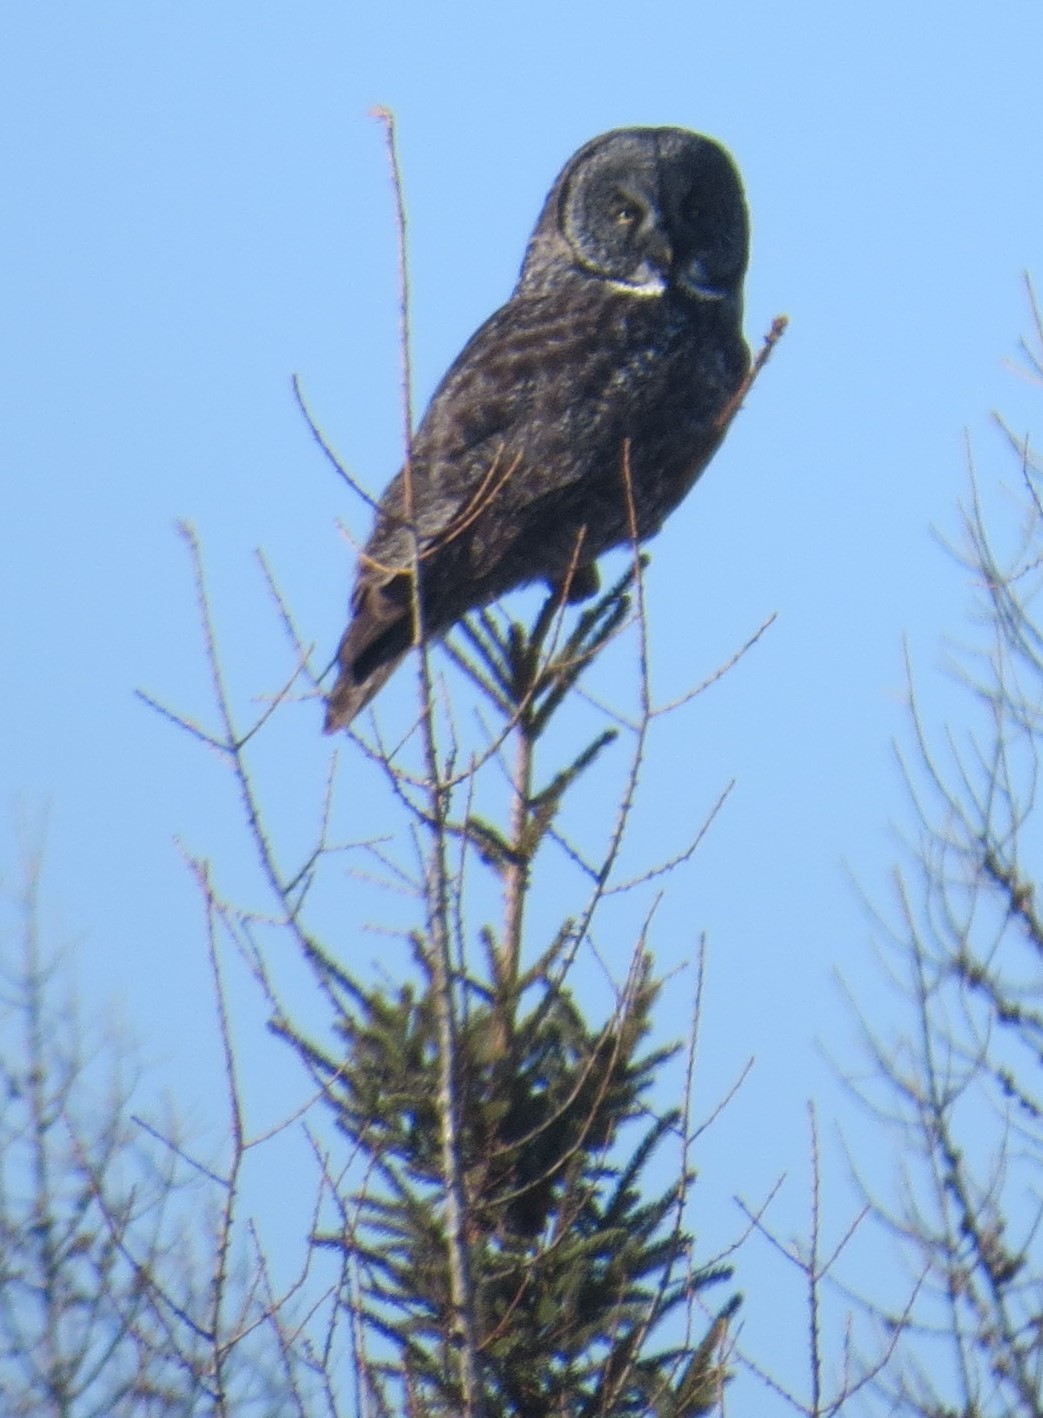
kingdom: Animalia
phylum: Chordata
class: Aves
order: Strigiformes
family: Strigidae
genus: Strix
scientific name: Strix nebulosa
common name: Great grey owl
